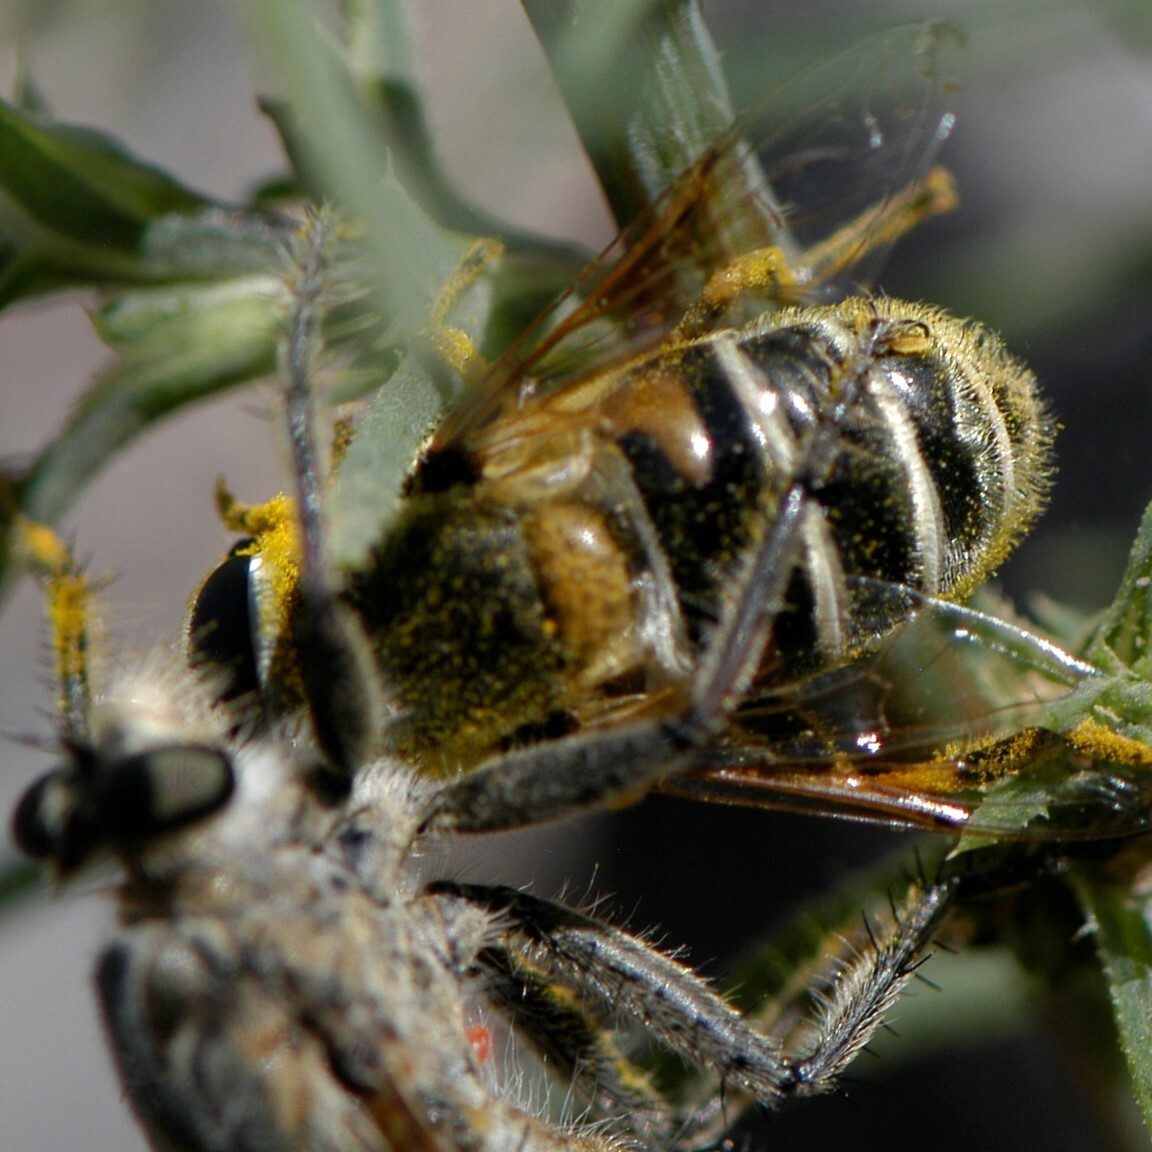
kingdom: Animalia
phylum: Arthropoda
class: Insecta
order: Diptera
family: Syrphidae
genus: Eristalis
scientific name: Eristalis stipator
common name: Yellow-shouldered drone fly
